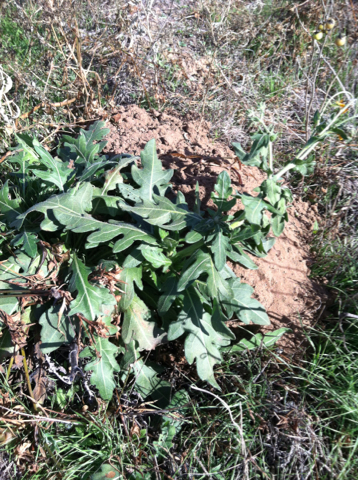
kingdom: Plantae
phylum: Tracheophyta
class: Magnoliopsida
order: Asterales
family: Asteraceae
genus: Engelmannia
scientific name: Engelmannia peristenia
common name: Engelmann's daisy
